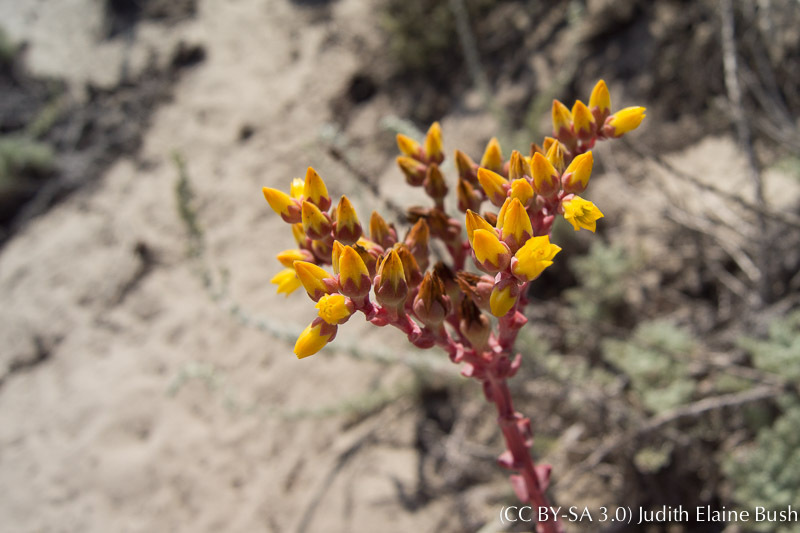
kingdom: Plantae
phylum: Tracheophyta
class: Magnoliopsida
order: Saxifragales
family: Crassulaceae
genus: Dudleya
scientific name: Dudleya caespitosa
